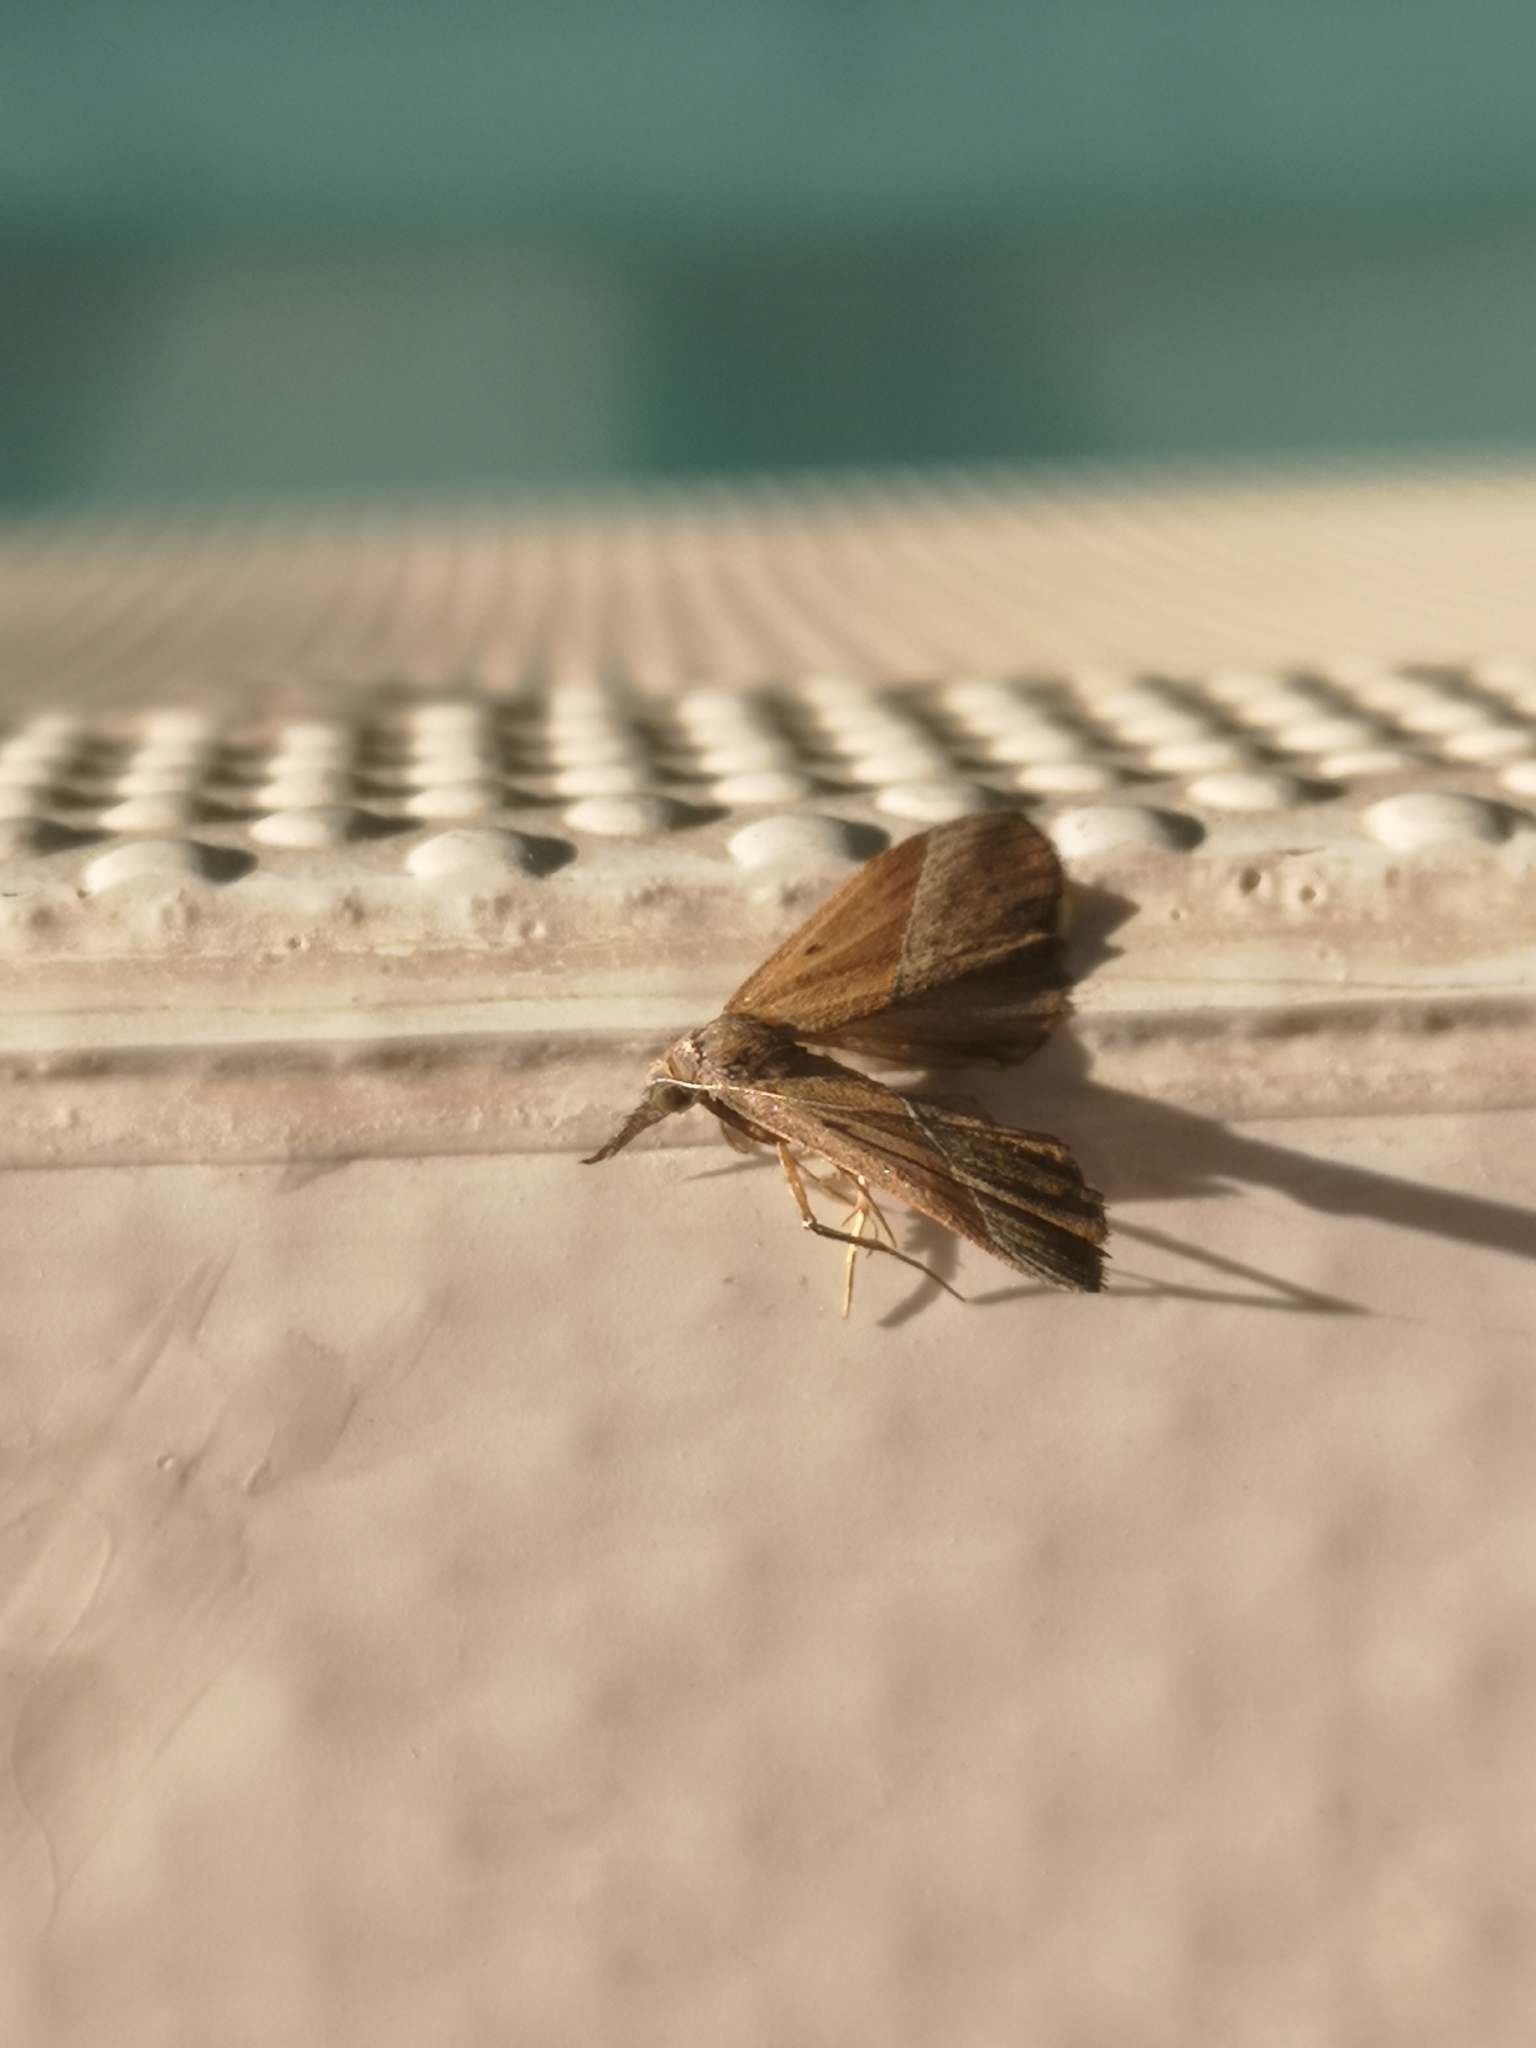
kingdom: Animalia
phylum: Arthropoda
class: Insecta
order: Lepidoptera
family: Erebidae
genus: Hypena
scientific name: Hypena lividalis
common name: Chevron snout
